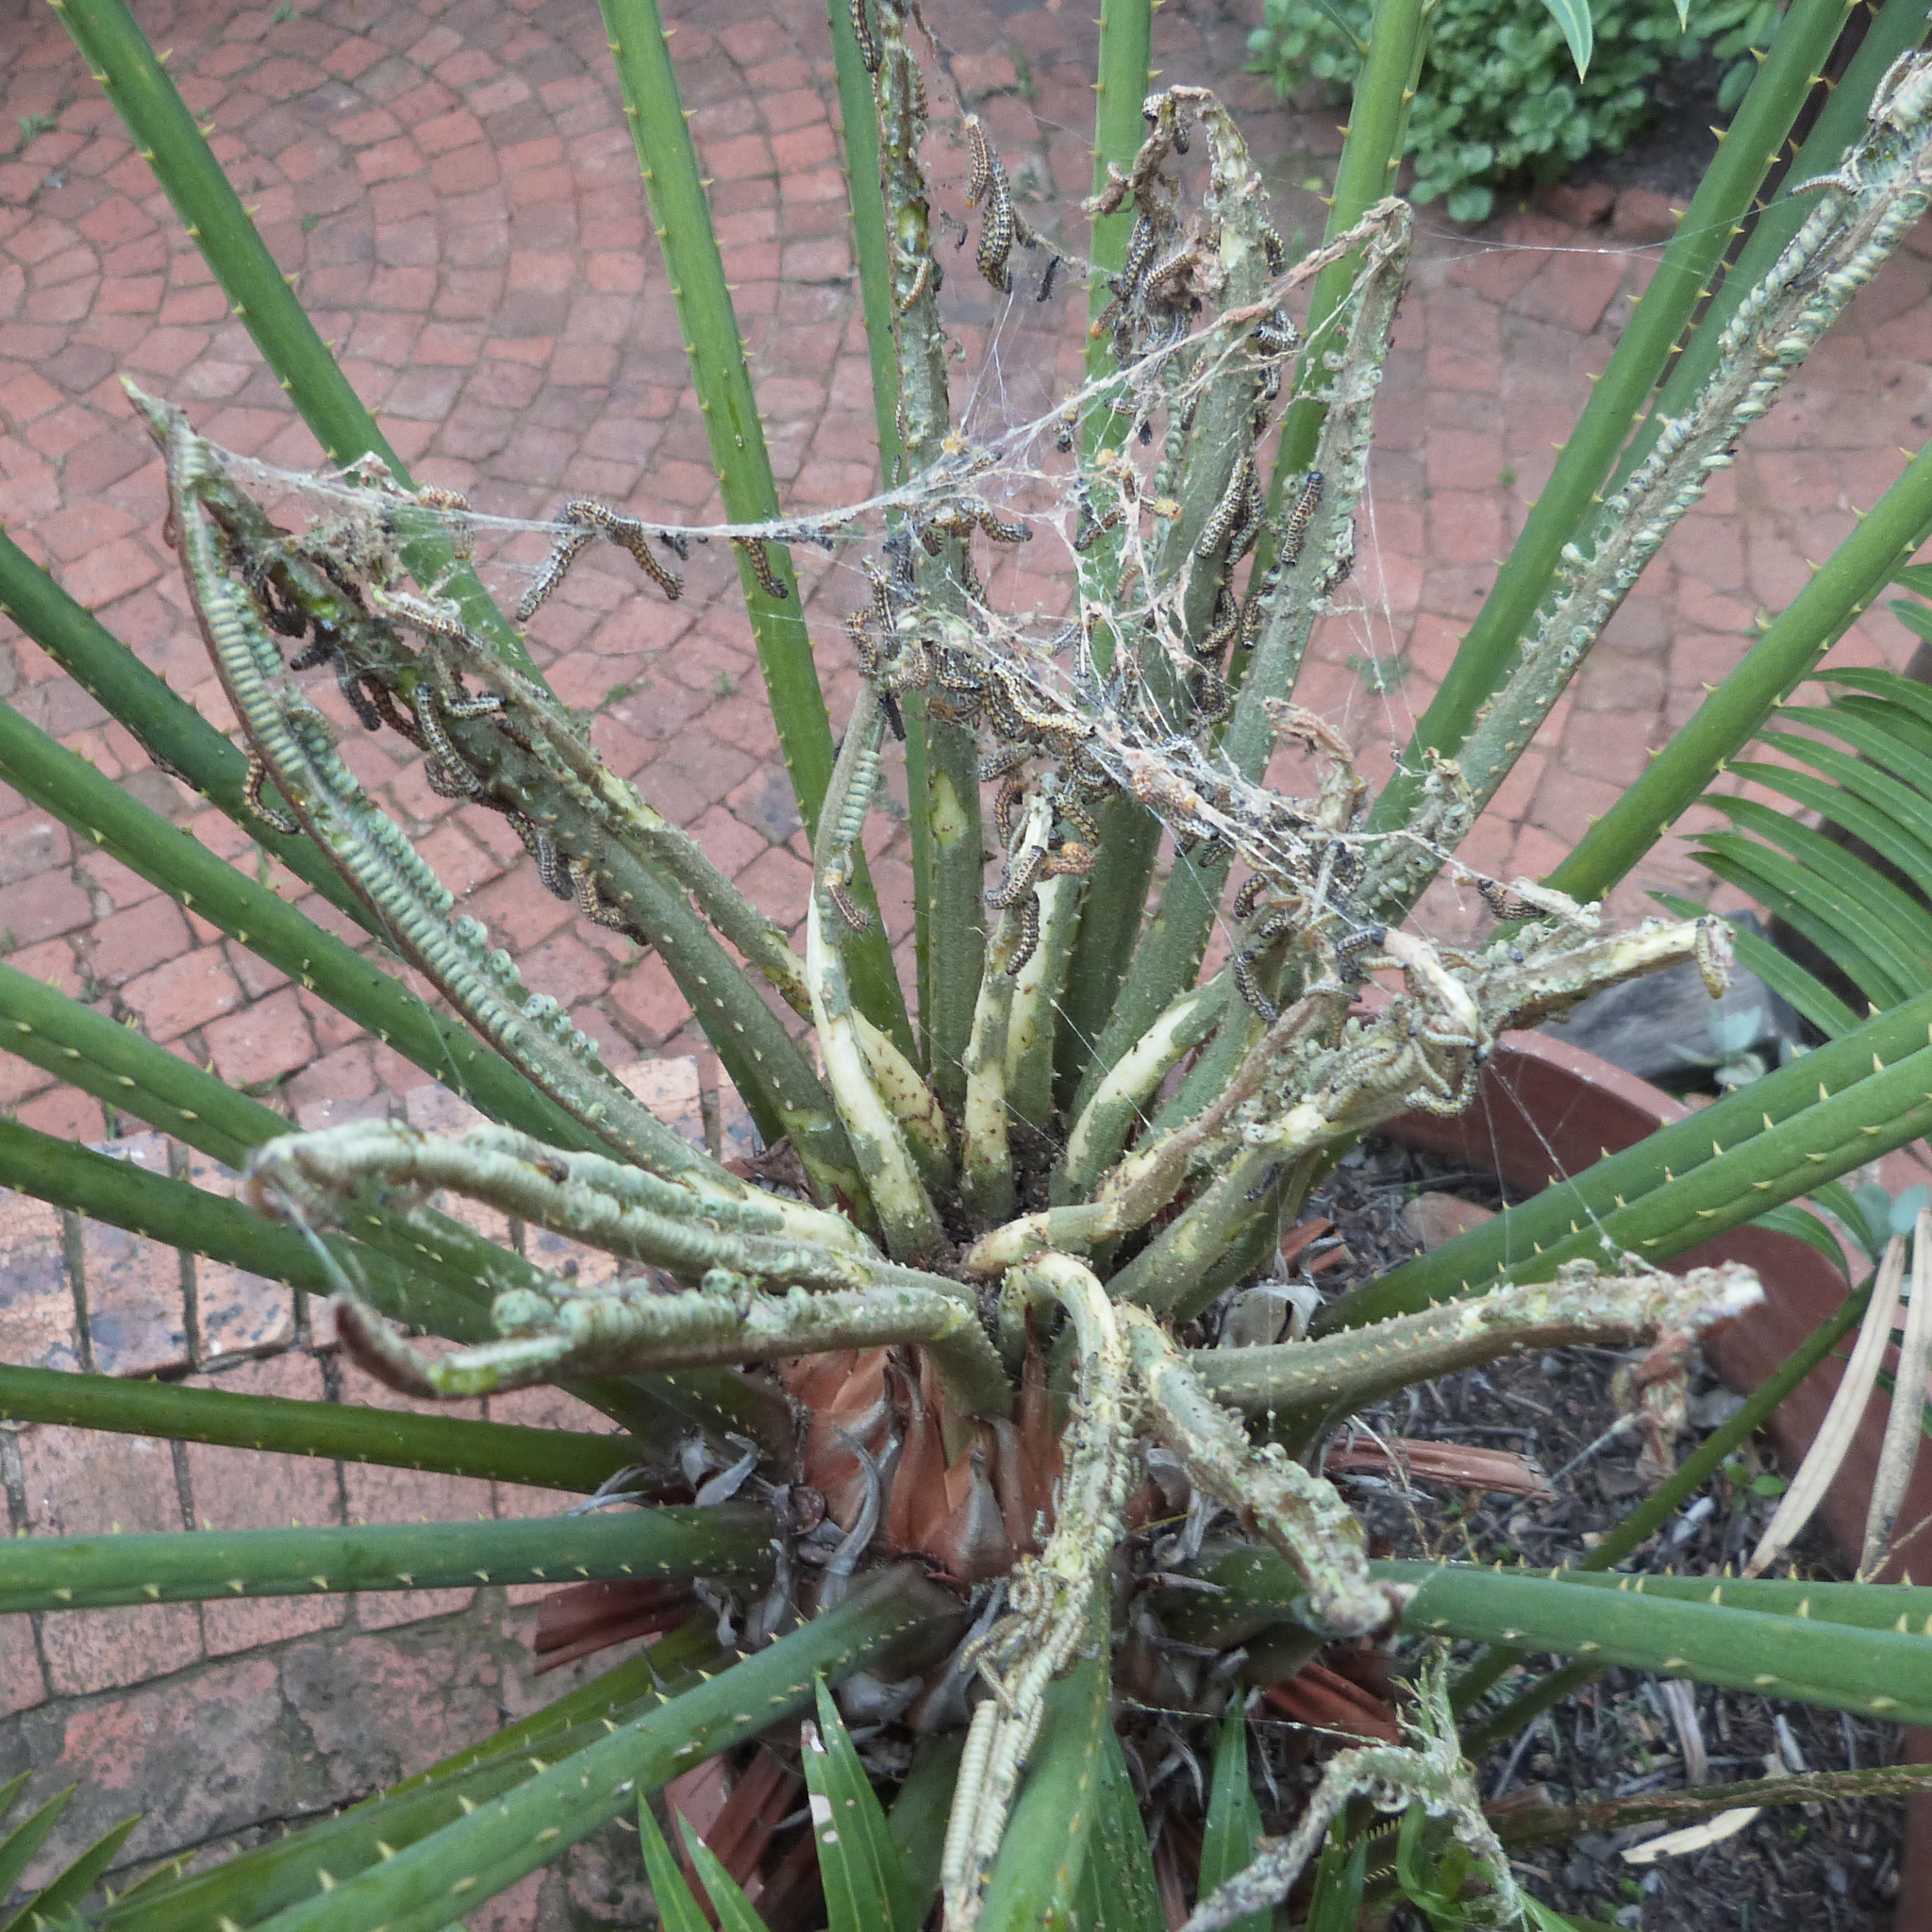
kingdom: Animalia
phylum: Arthropoda
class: Insecta
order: Lepidoptera
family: Geometridae
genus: Zerenopsis
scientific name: Zerenopsis lepida
